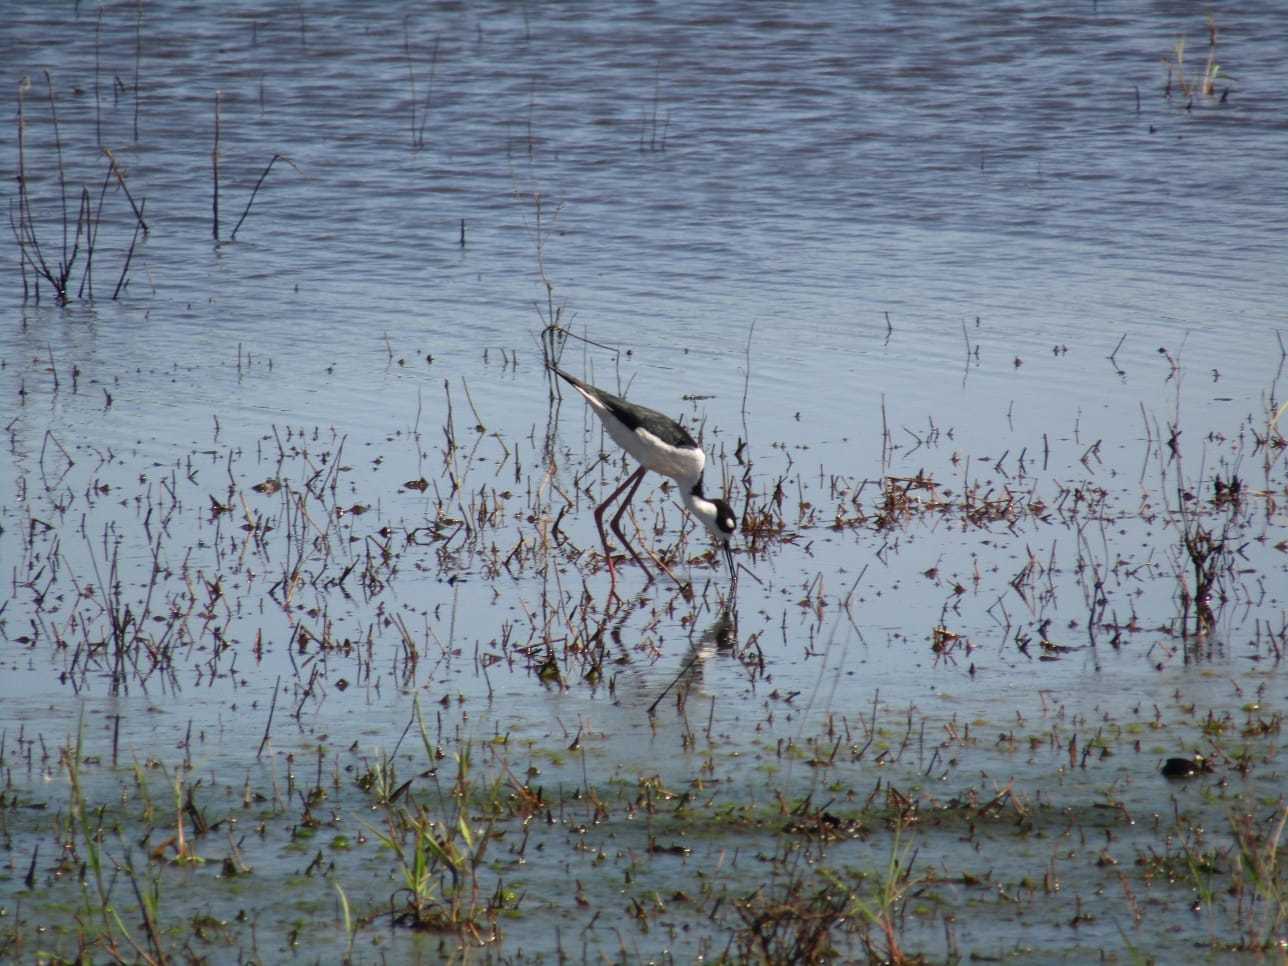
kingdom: Animalia
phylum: Chordata
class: Aves
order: Charadriiformes
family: Recurvirostridae
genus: Himantopus
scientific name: Himantopus mexicanus
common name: Black-necked stilt
